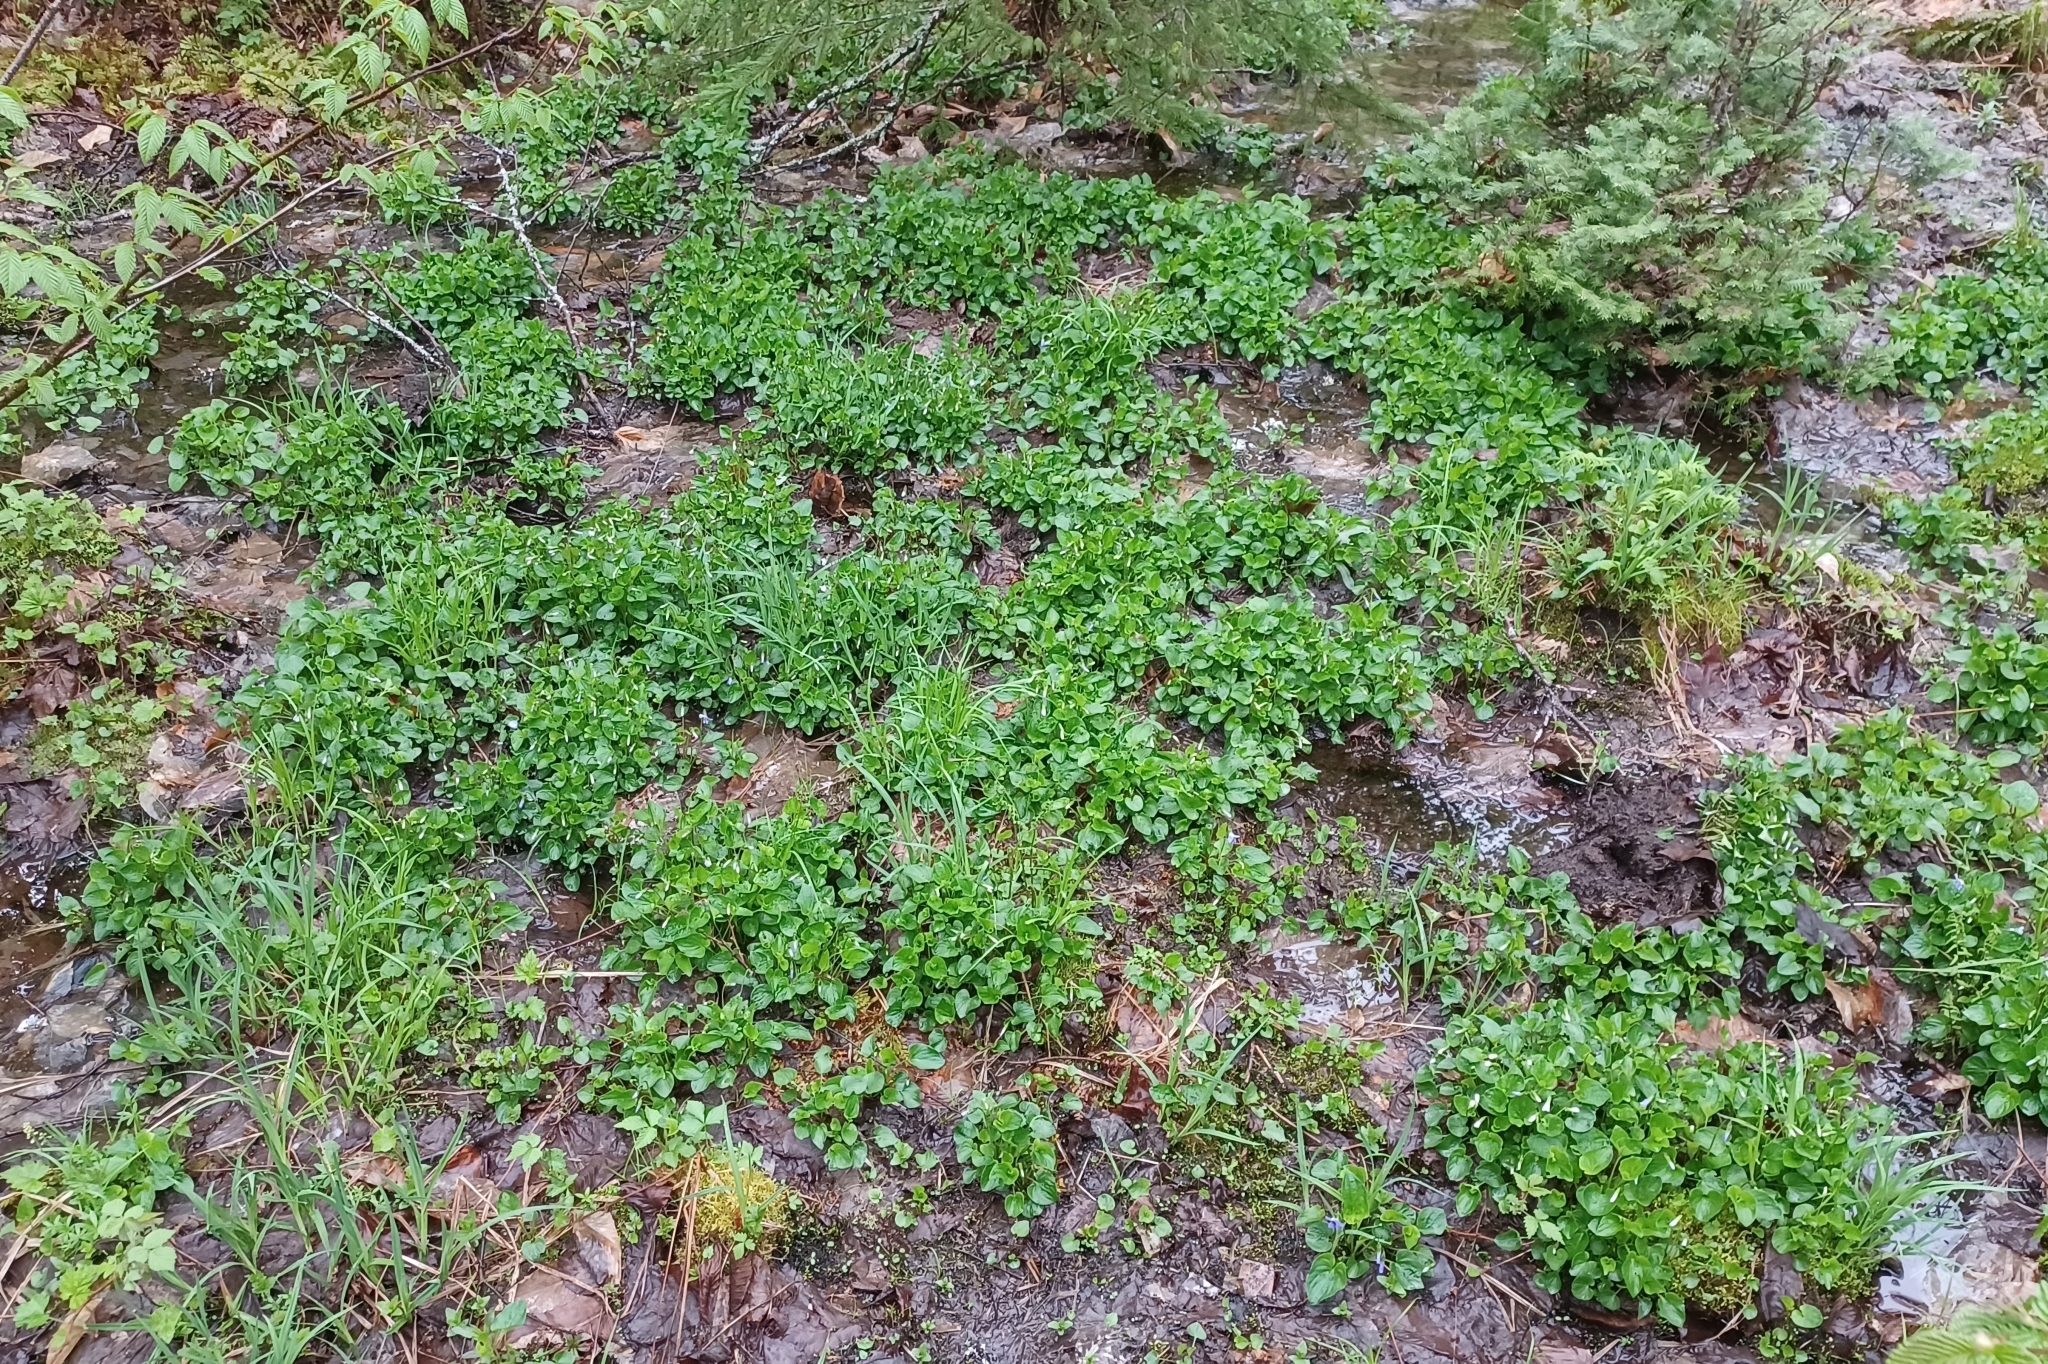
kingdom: Plantae
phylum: Tracheophyta
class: Magnoliopsida
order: Malpighiales
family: Violaceae
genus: Viola
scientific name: Viola cucullata
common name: Marsh blue violet
